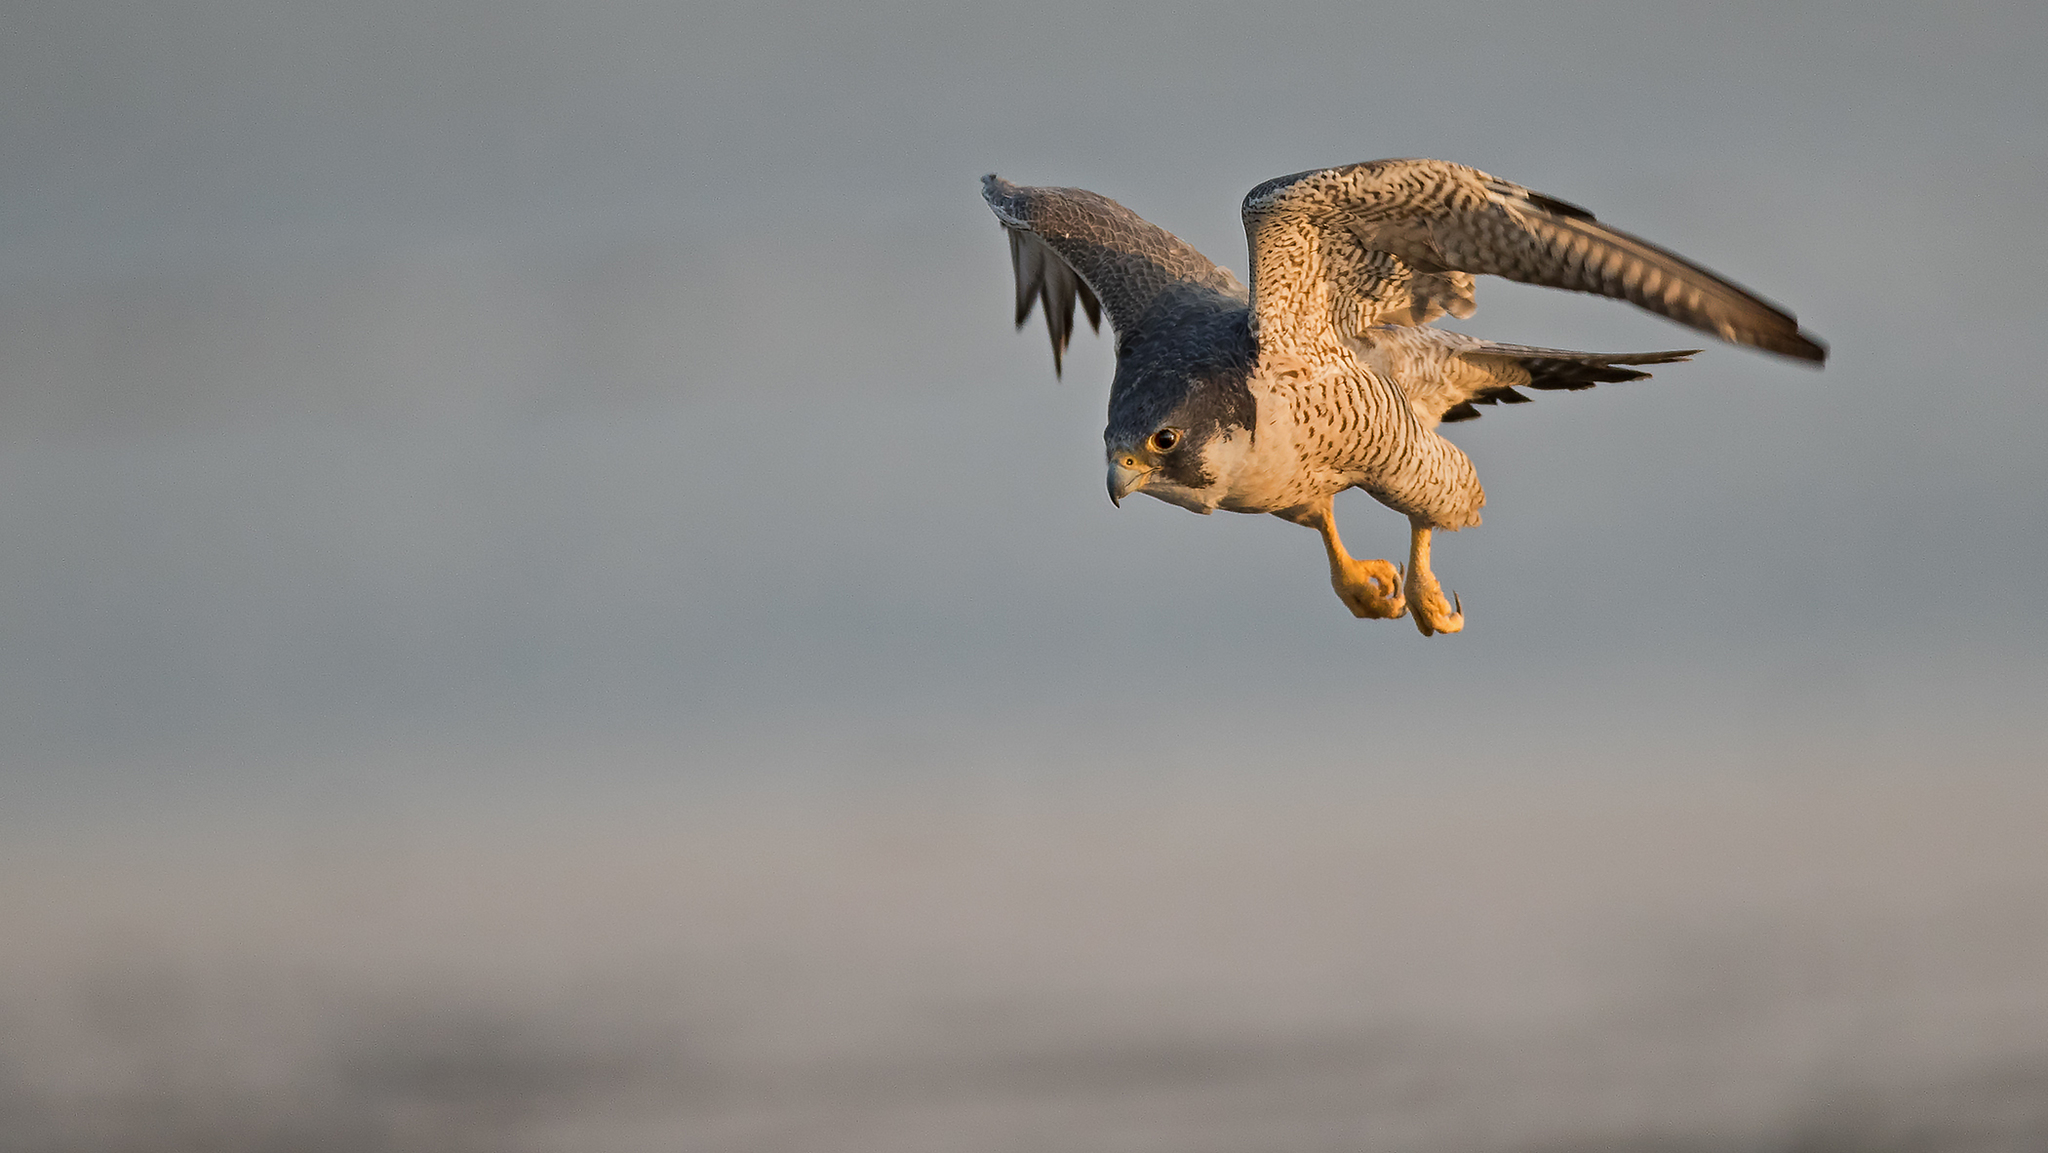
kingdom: Animalia
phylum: Chordata
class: Aves
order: Falconiformes
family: Falconidae
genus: Falco
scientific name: Falco peregrinus
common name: Peregrine falcon
